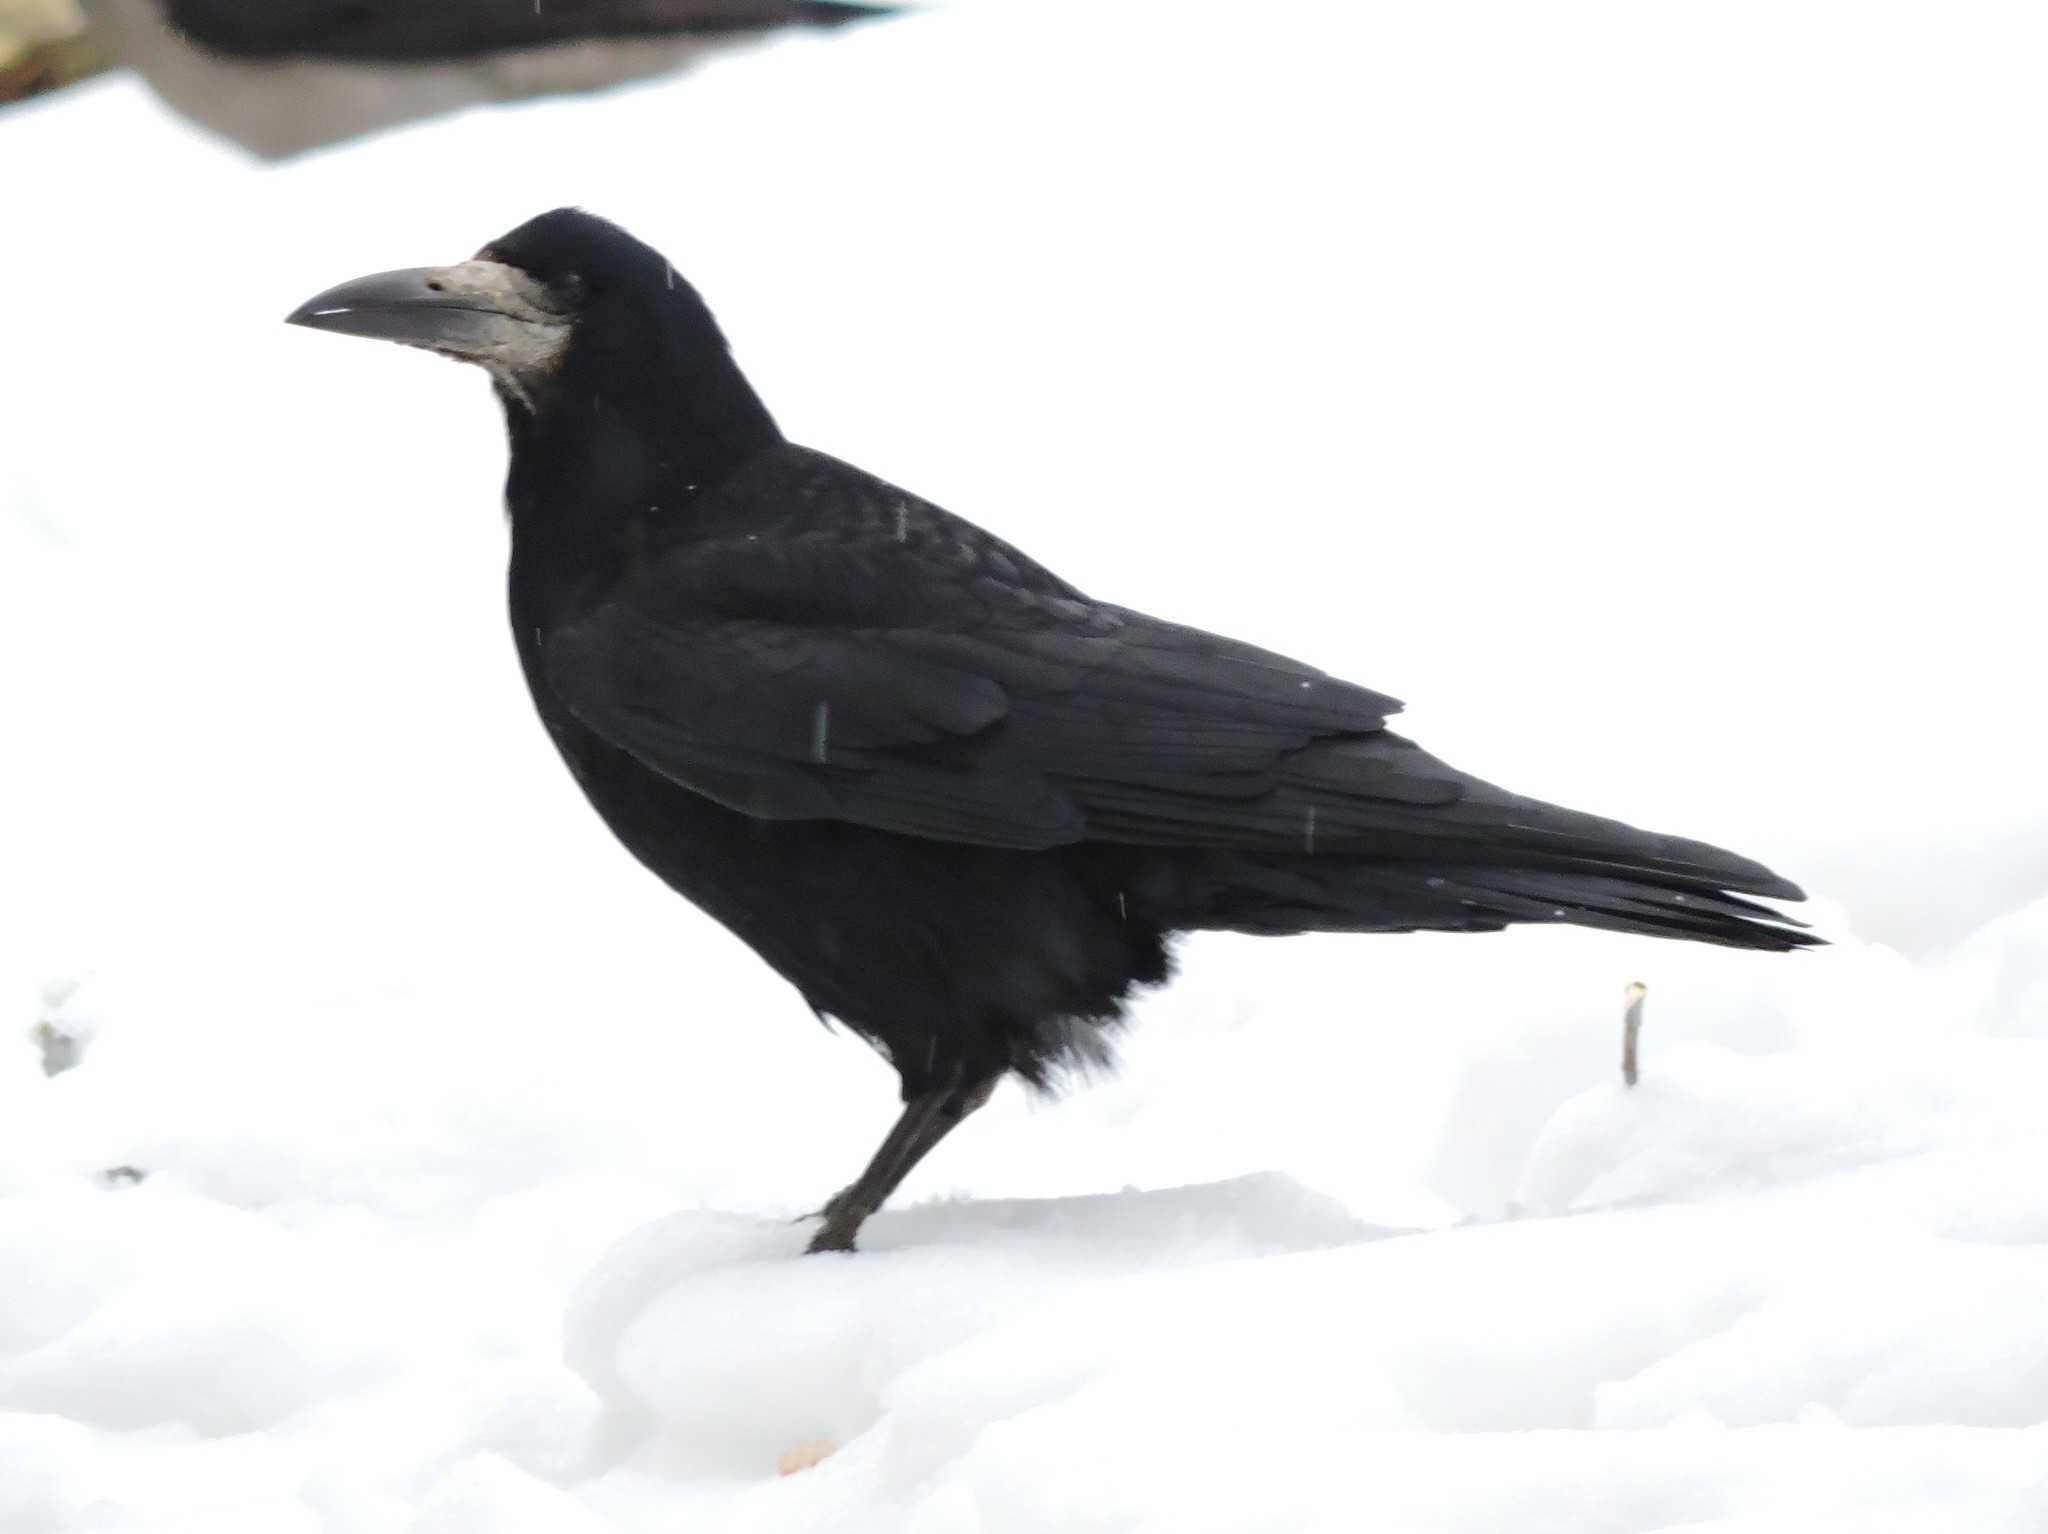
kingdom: Animalia
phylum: Chordata
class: Aves
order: Passeriformes
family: Corvidae
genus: Corvus
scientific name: Corvus frugilegus
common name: Rook
